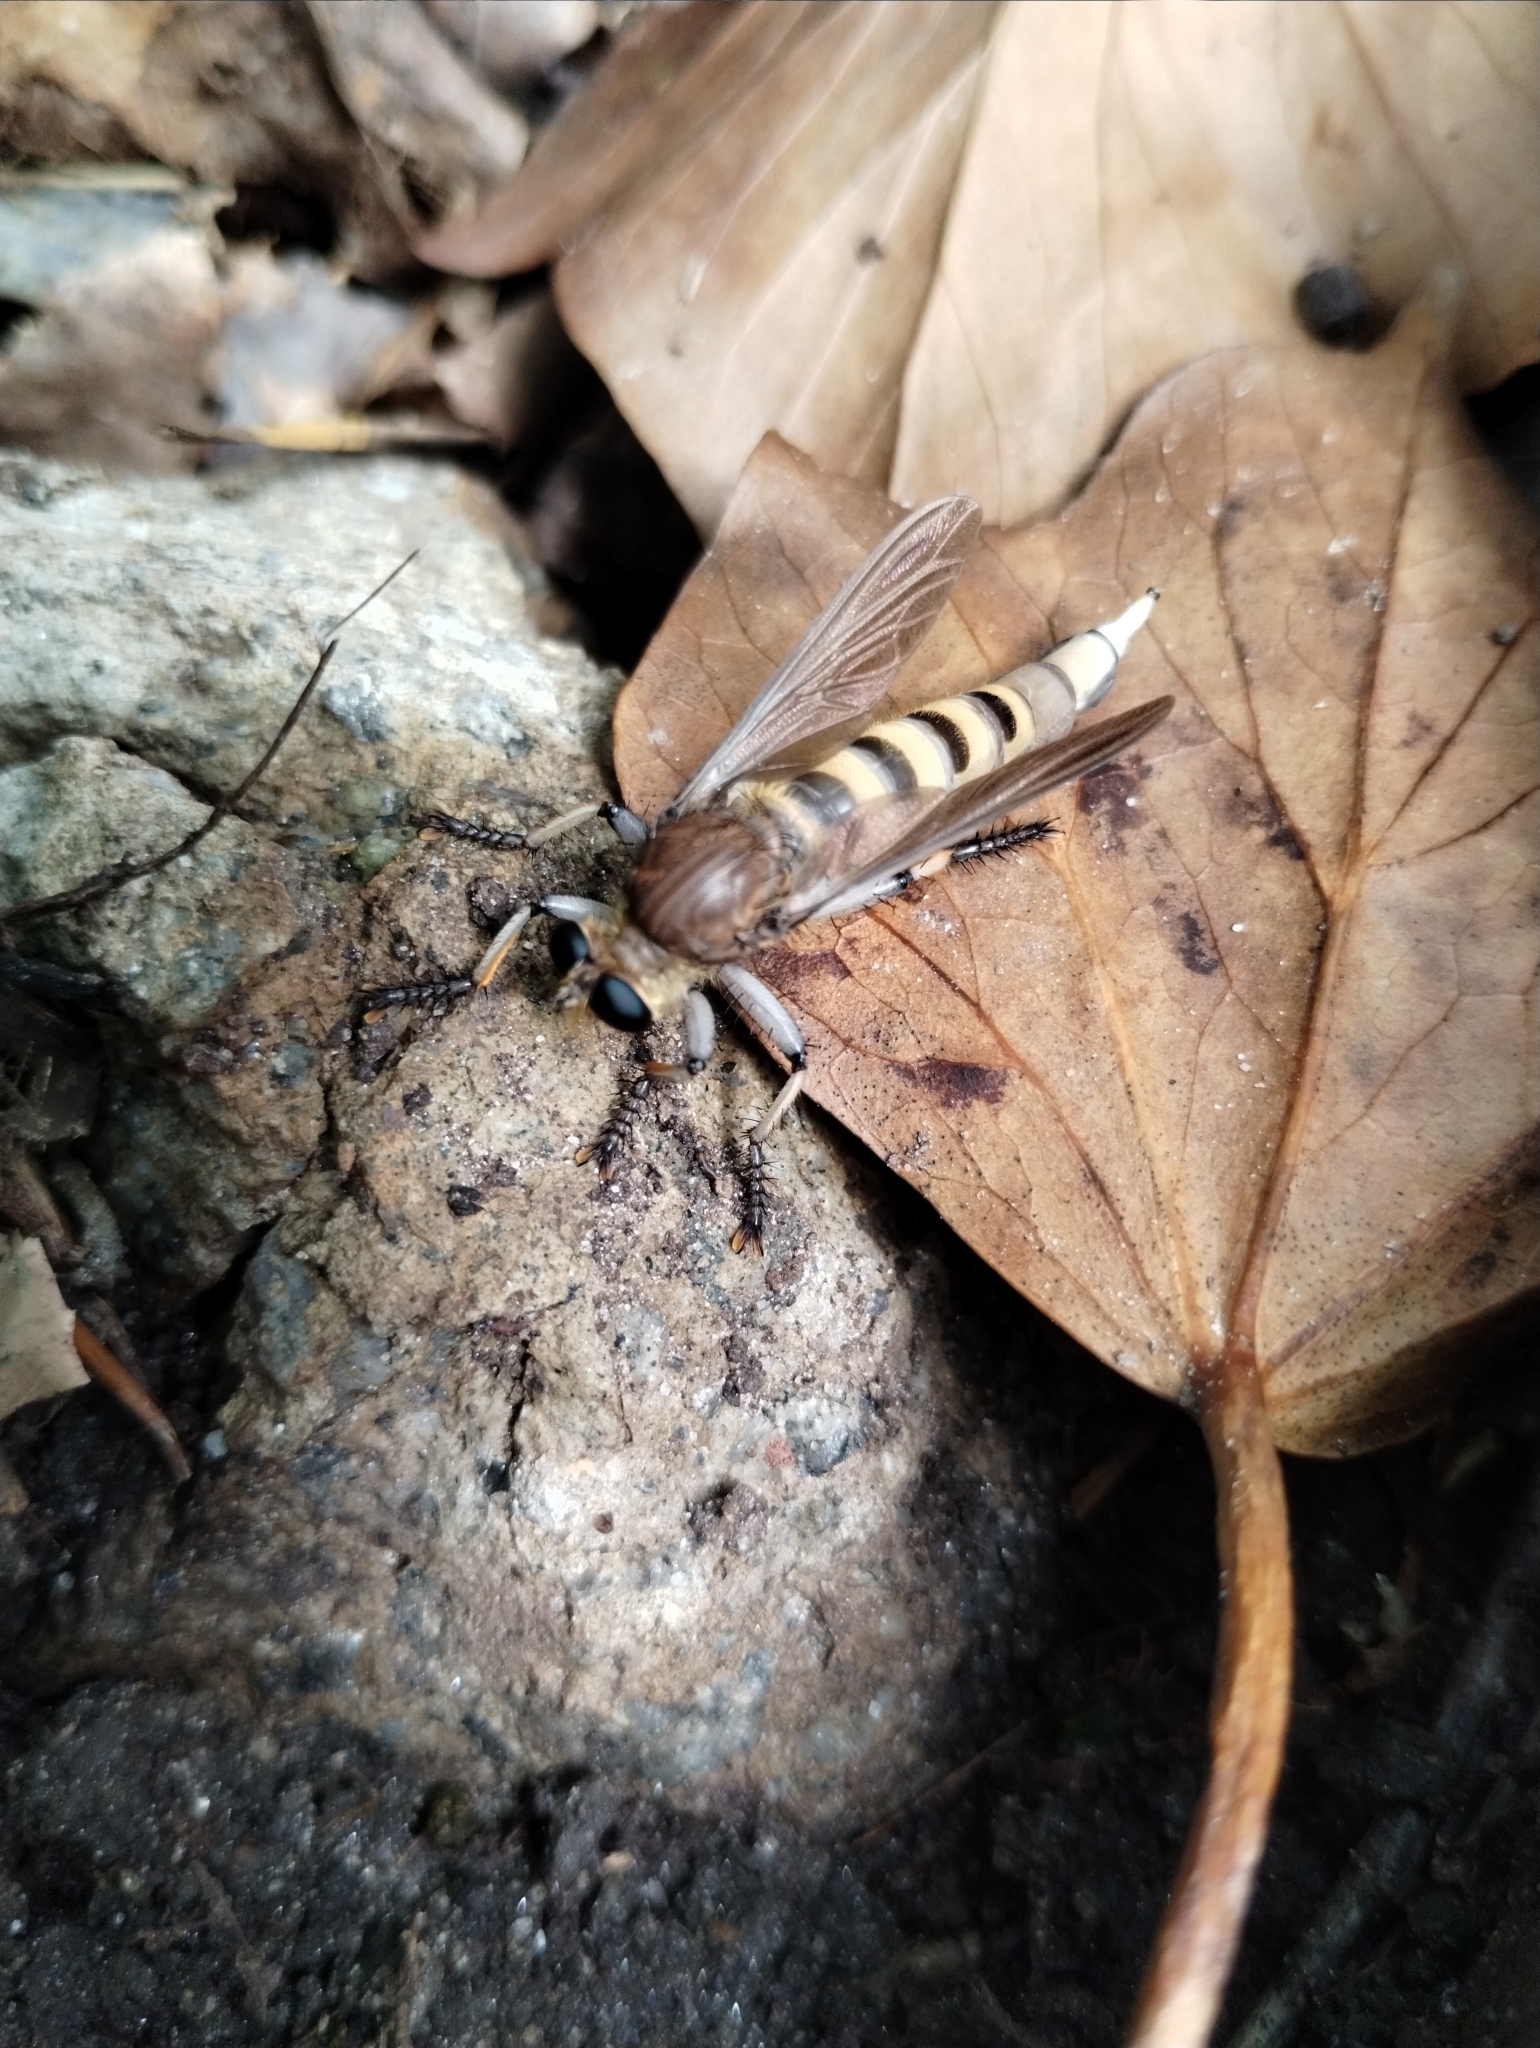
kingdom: Animalia
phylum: Arthropoda
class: Insecta
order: Diptera
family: Asilidae
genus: Promachus
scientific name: Promachus rufipes
